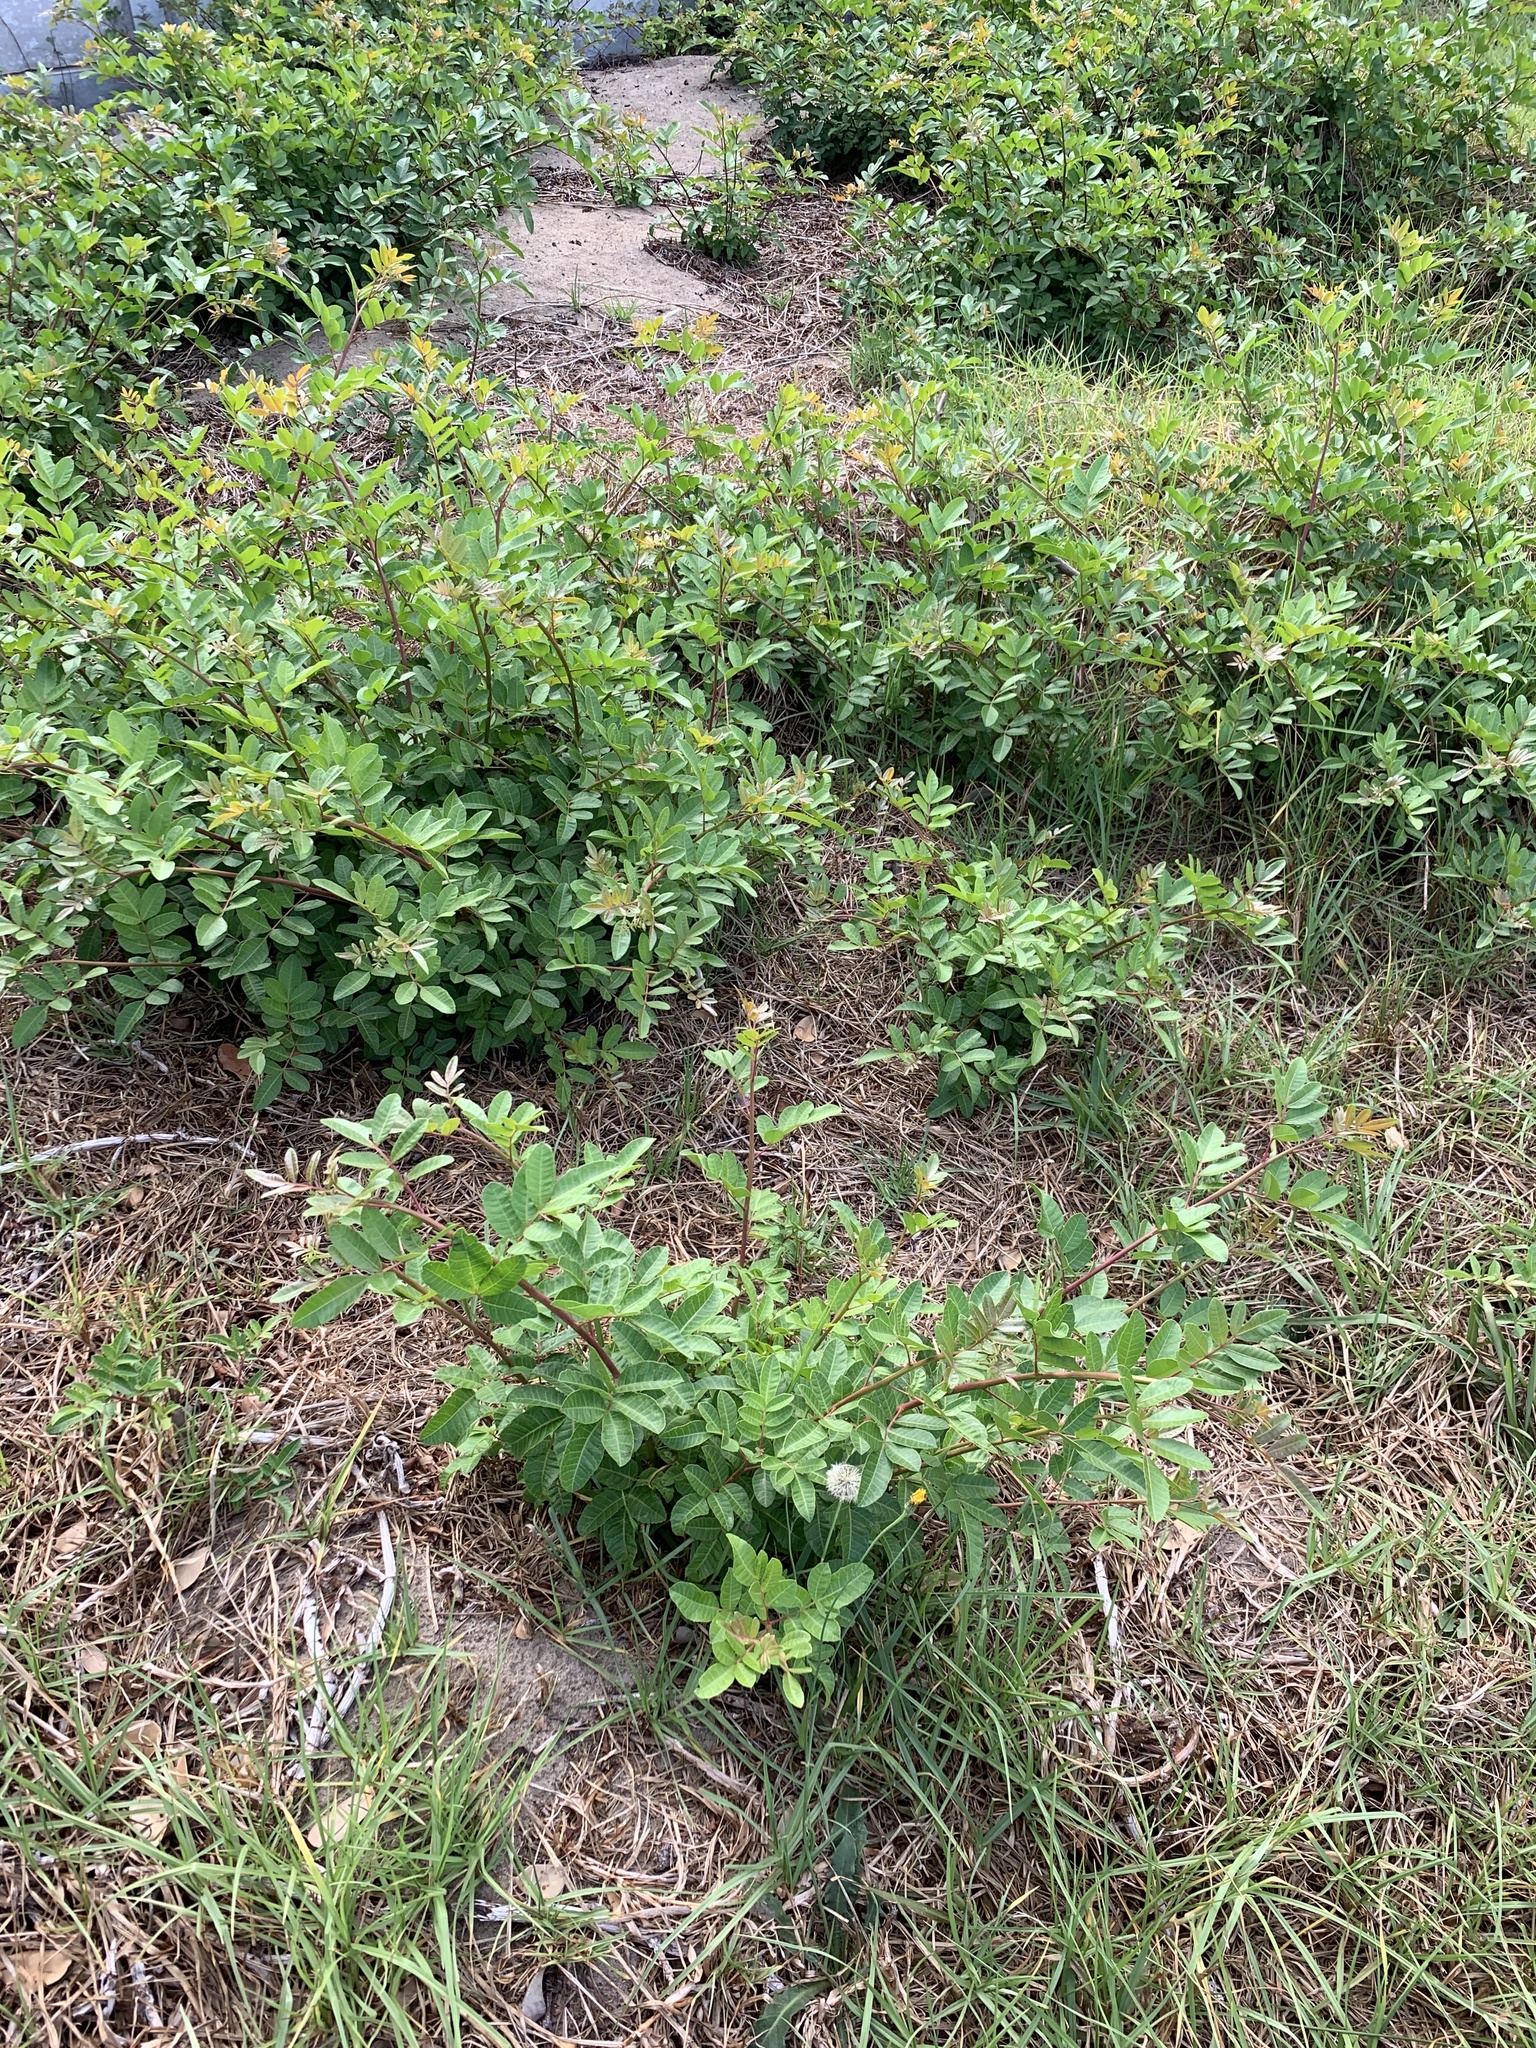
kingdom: Plantae
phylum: Tracheophyta
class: Magnoliopsida
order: Sapindales
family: Anacardiaceae
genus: Schinus
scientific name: Schinus terebinthifolia
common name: Brazilian peppertree
